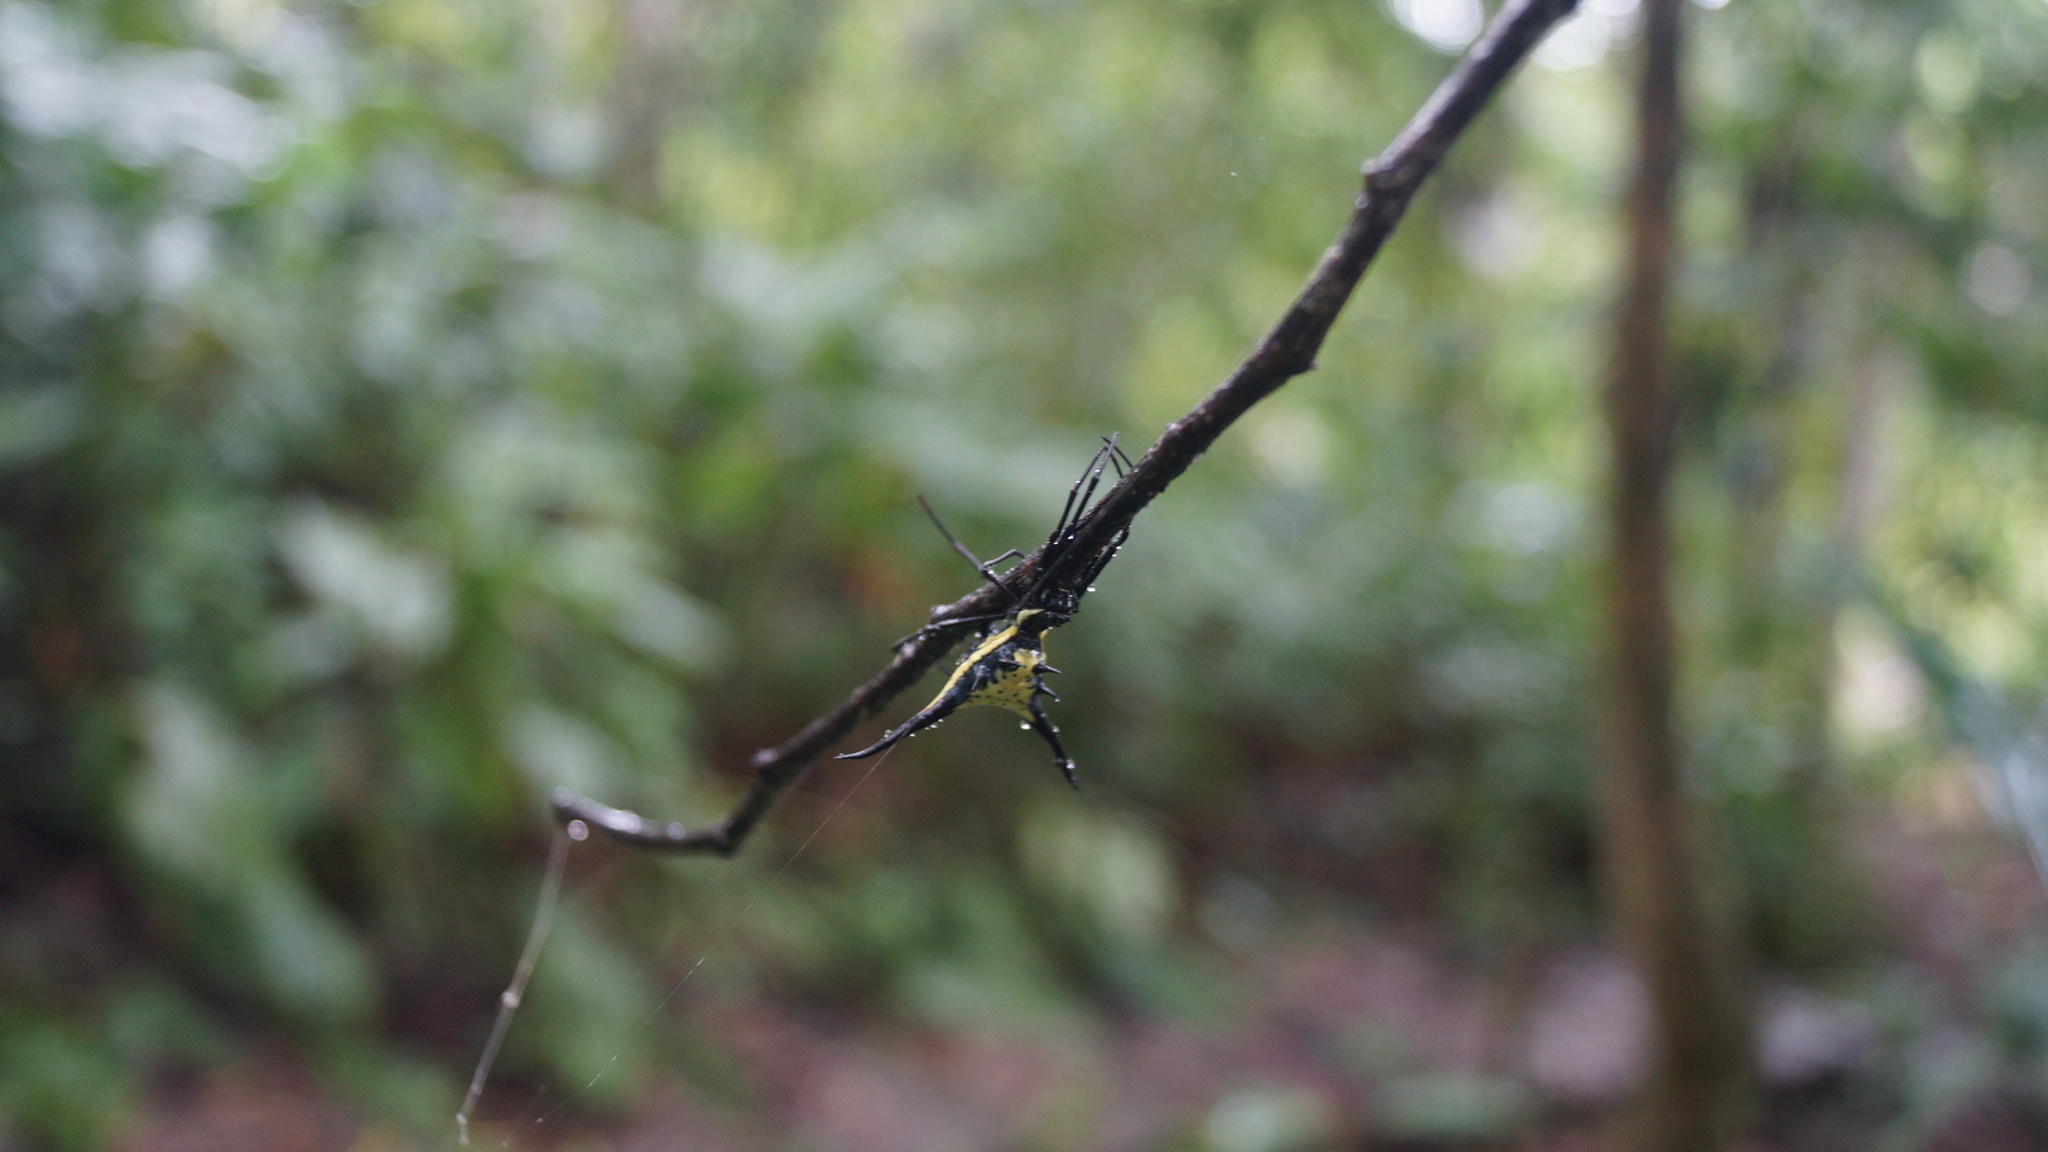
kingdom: Animalia
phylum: Arthropoda
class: Arachnida
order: Araneae
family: Araneidae
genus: Micrathena
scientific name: Micrathena schreibersi
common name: Orb weavers
